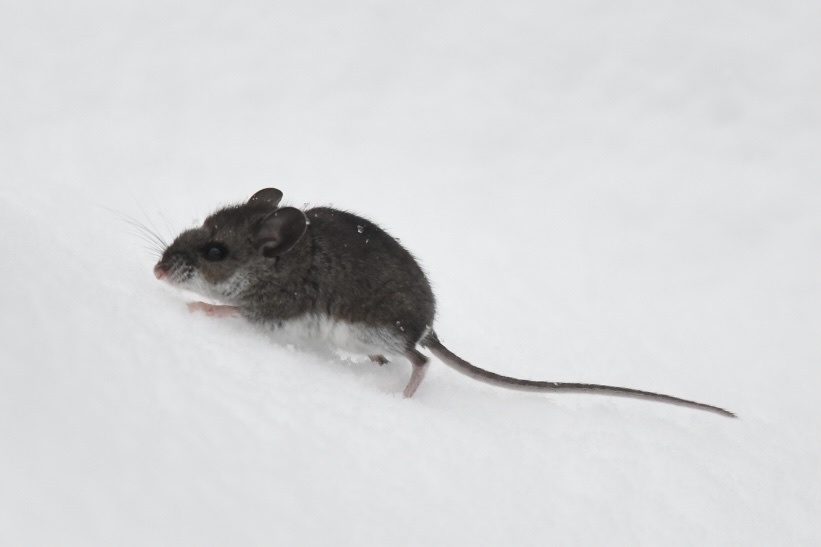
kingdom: Animalia
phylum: Chordata
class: Mammalia
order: Rodentia
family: Cricetidae
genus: Peromyscus
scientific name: Peromyscus maniculatus
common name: Deer mouse
